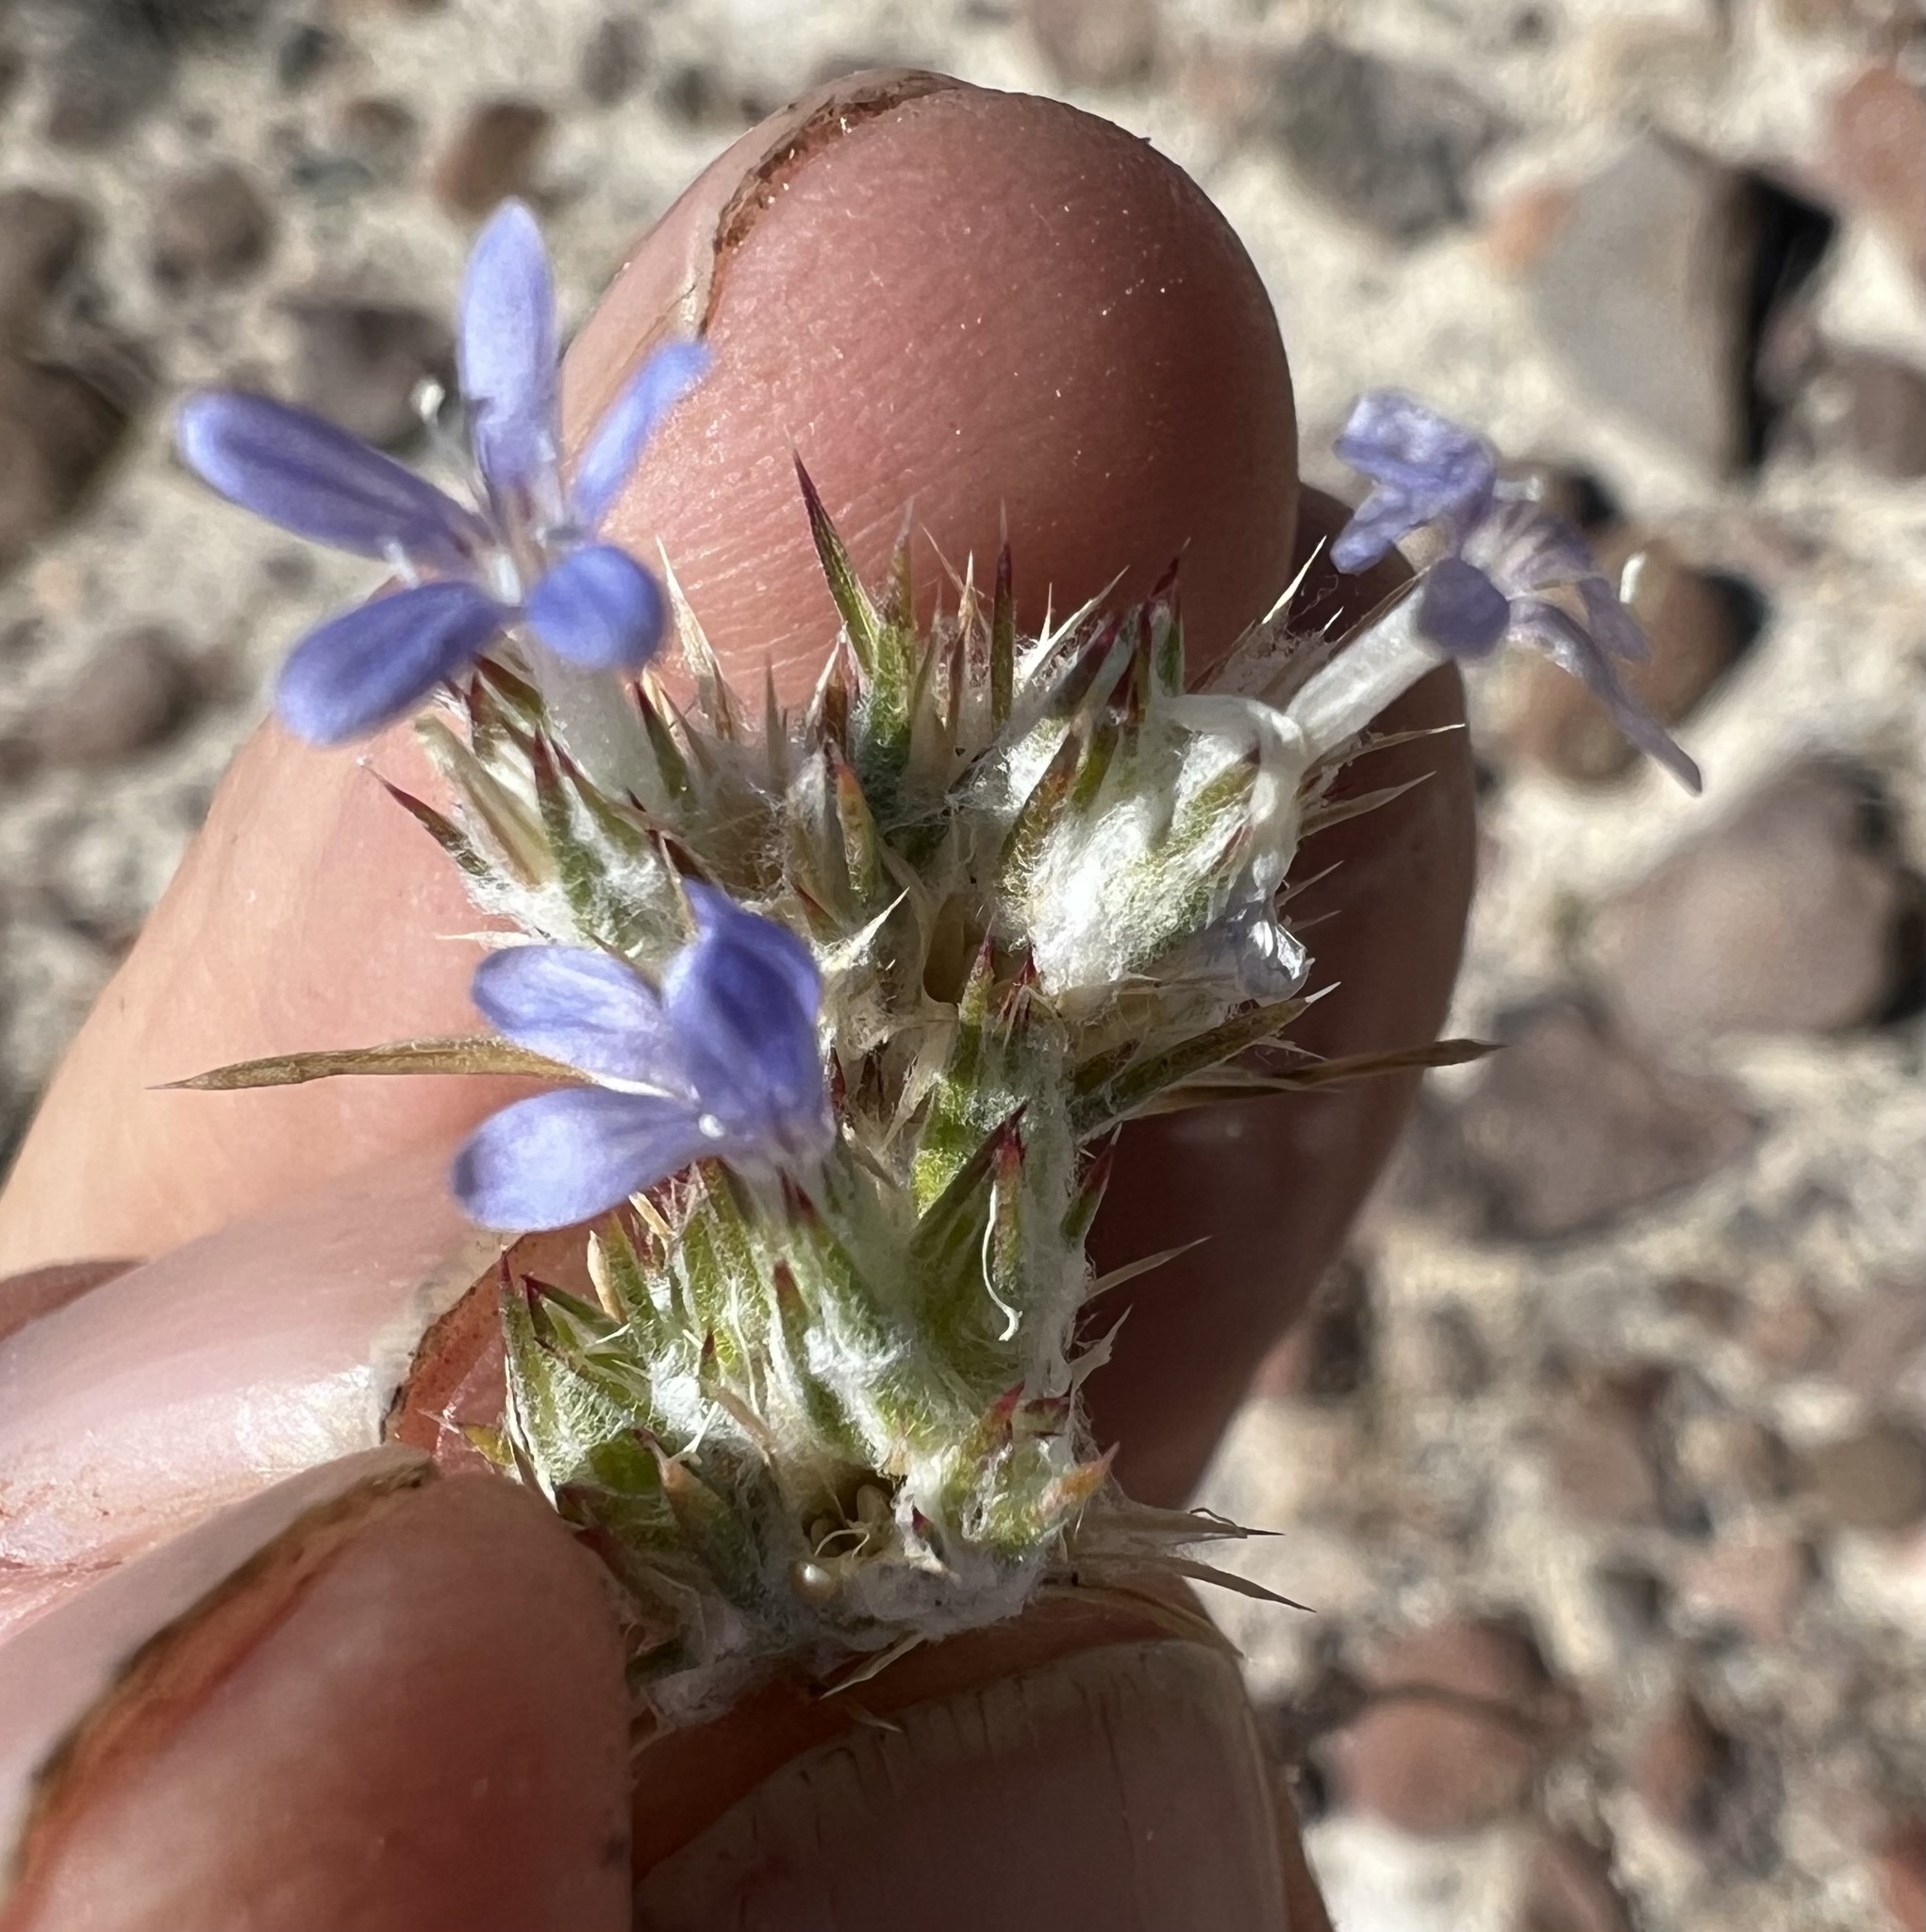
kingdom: Plantae
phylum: Tracheophyta
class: Magnoliopsida
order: Ericales
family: Polemoniaceae
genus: Eriastrum
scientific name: Eriastrum wilcoxii
